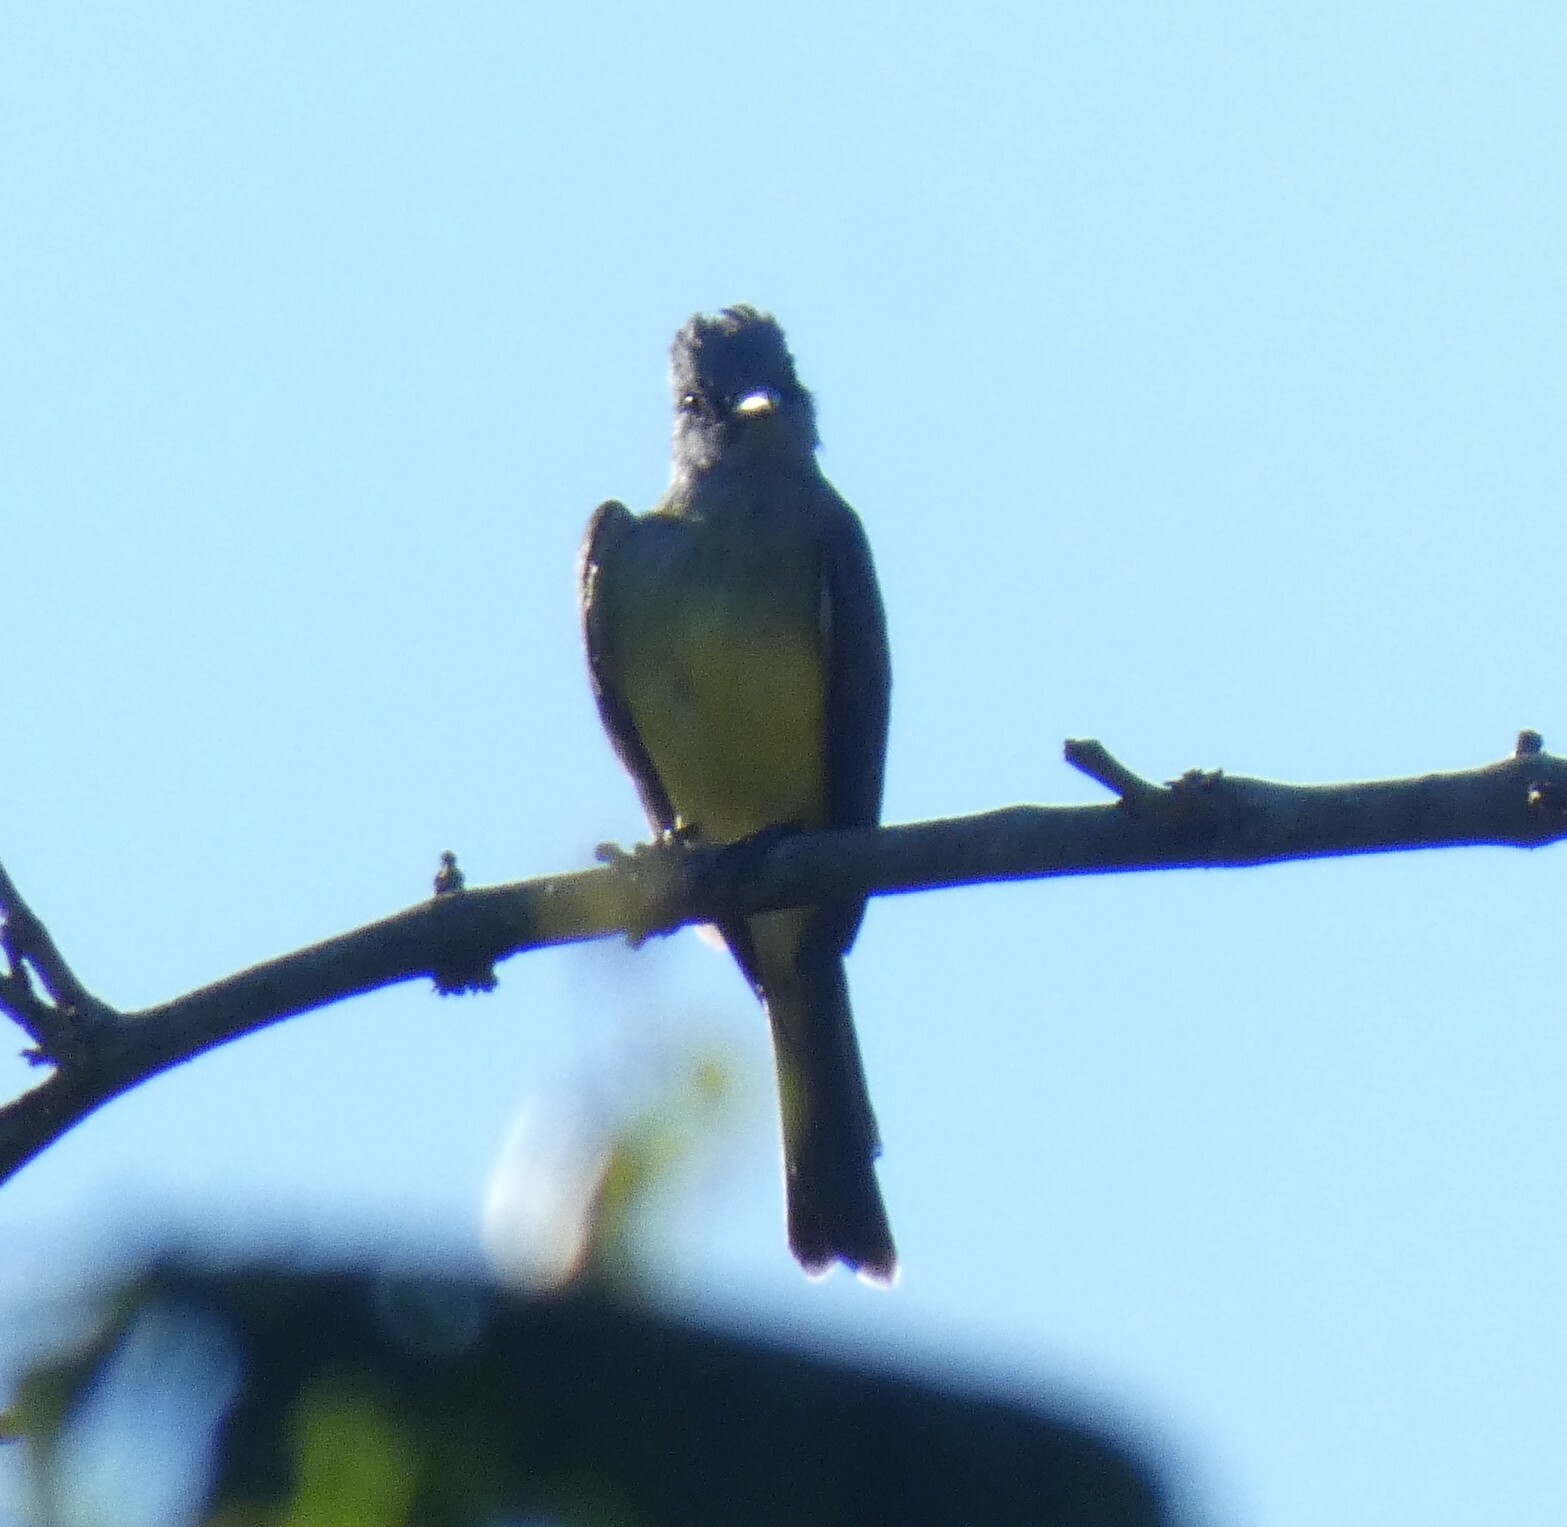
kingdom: Animalia
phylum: Chordata
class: Aves
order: Passeriformes
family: Tyrannidae
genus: Tyrannus
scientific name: Tyrannus melancholicus
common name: Tropical kingbird
